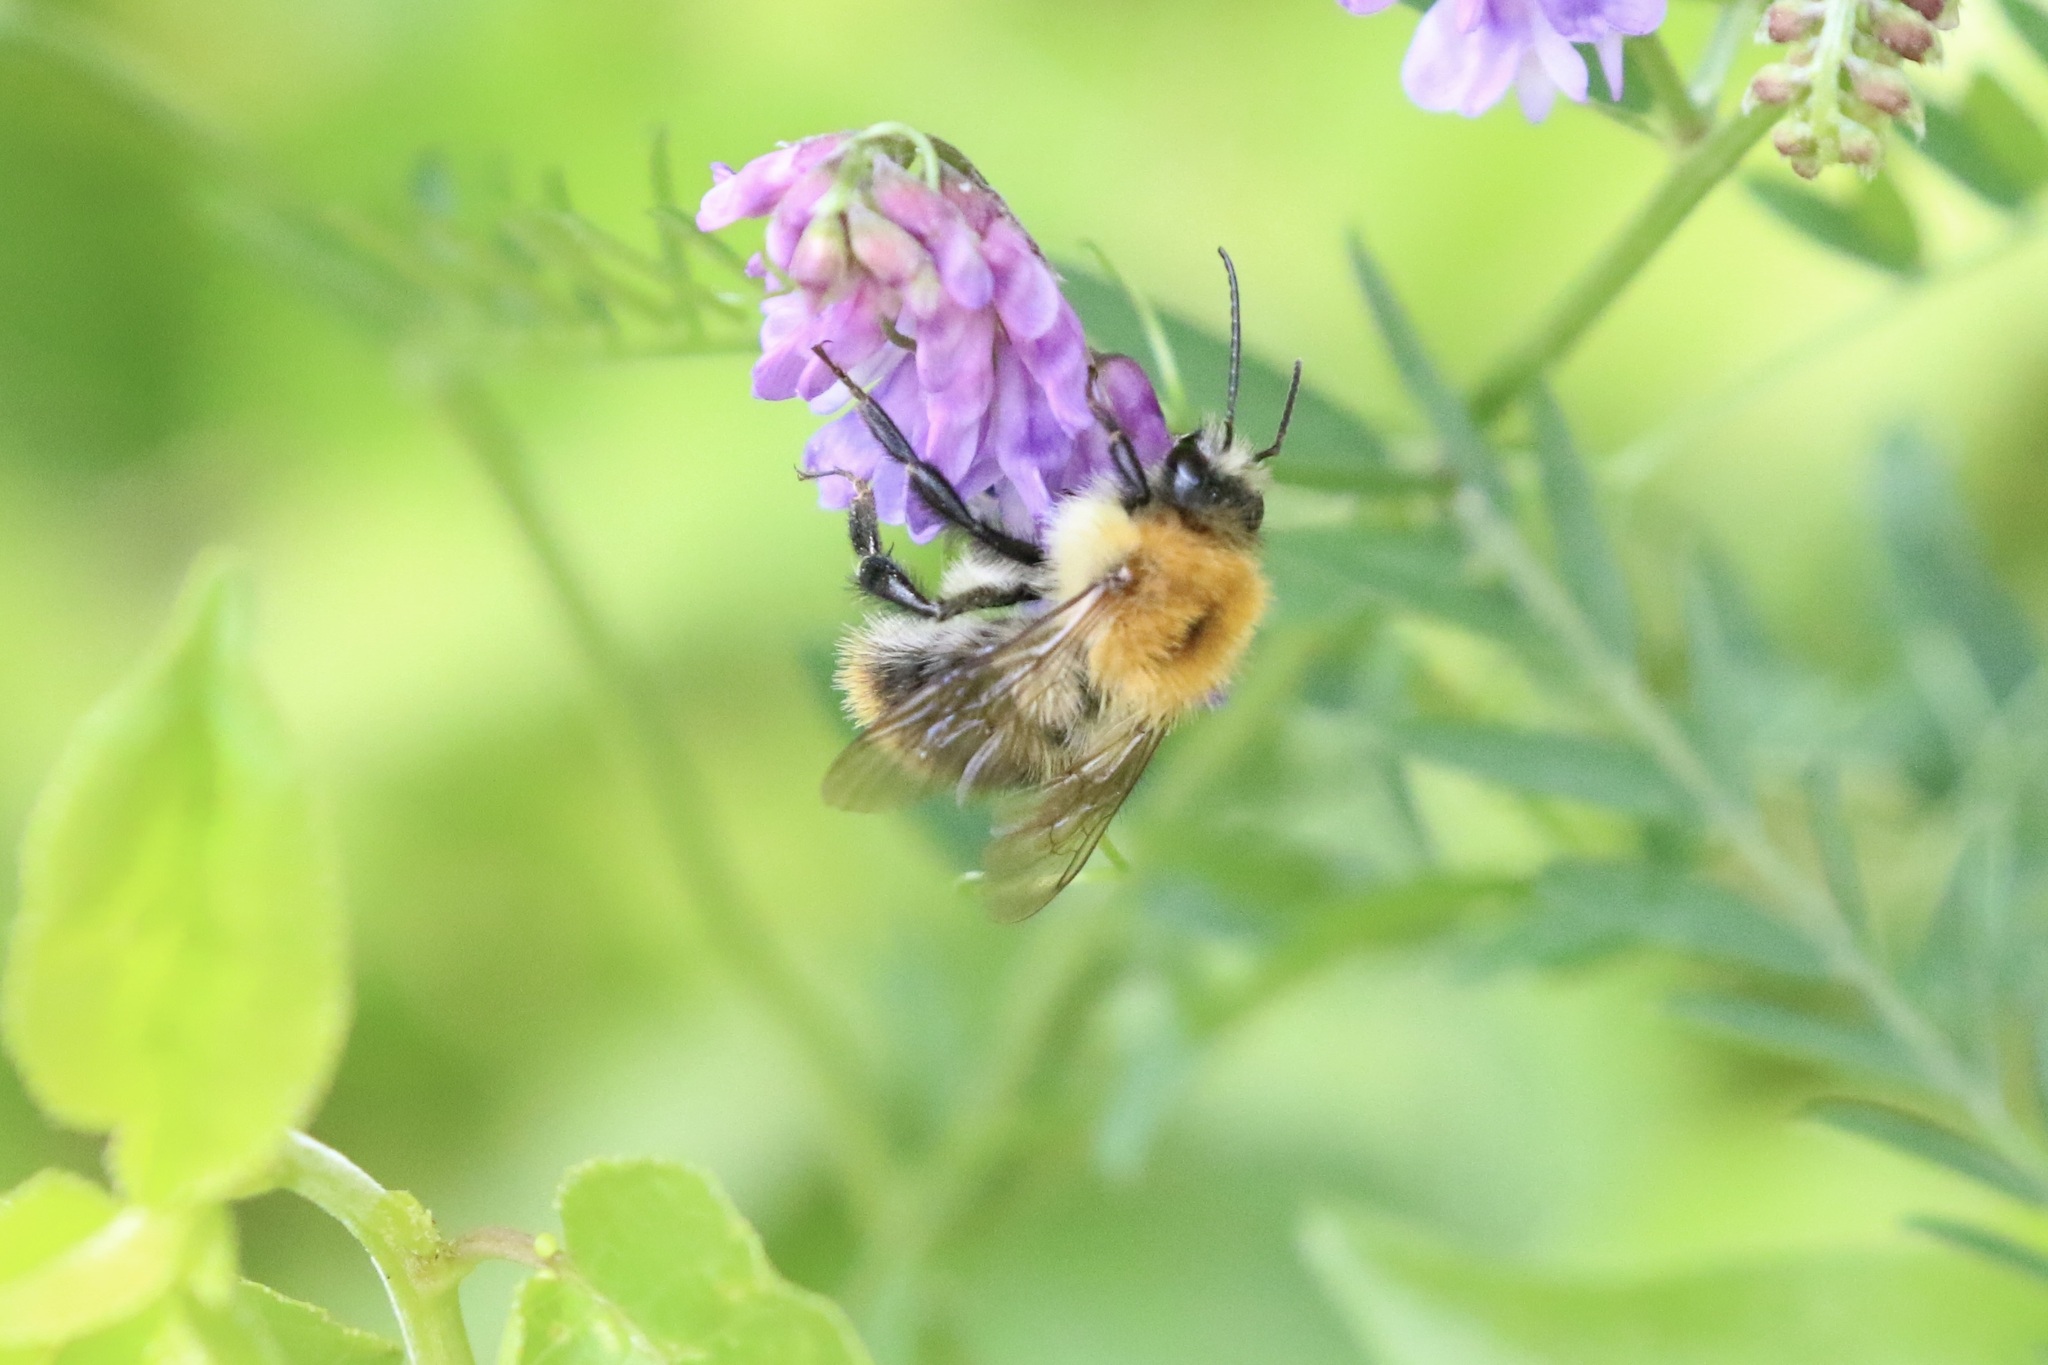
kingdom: Animalia
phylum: Arthropoda
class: Insecta
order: Hymenoptera
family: Apidae
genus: Bombus
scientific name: Bombus pascuorum
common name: Common carder bee
